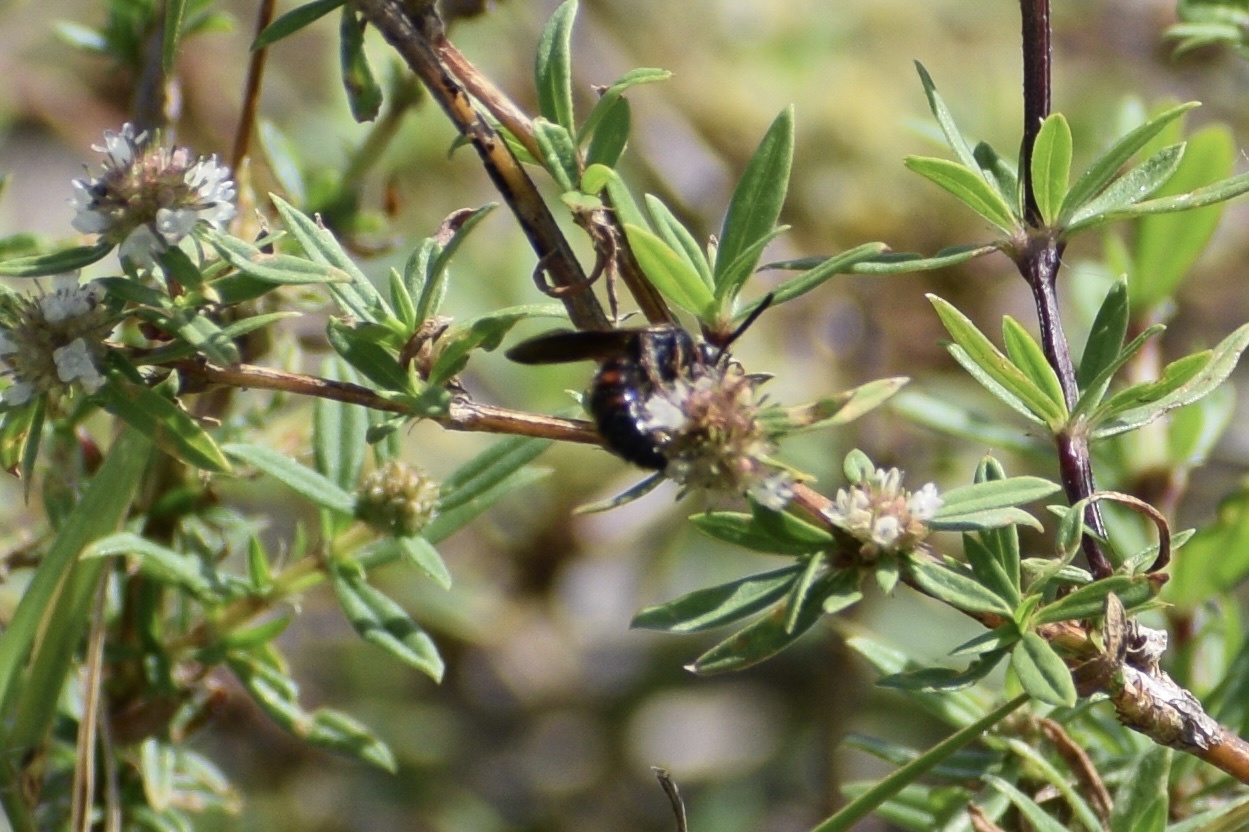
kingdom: Animalia
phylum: Arthropoda
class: Insecta
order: Hymenoptera
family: Scoliidae
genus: Scolia
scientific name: Scolia nobilitata
